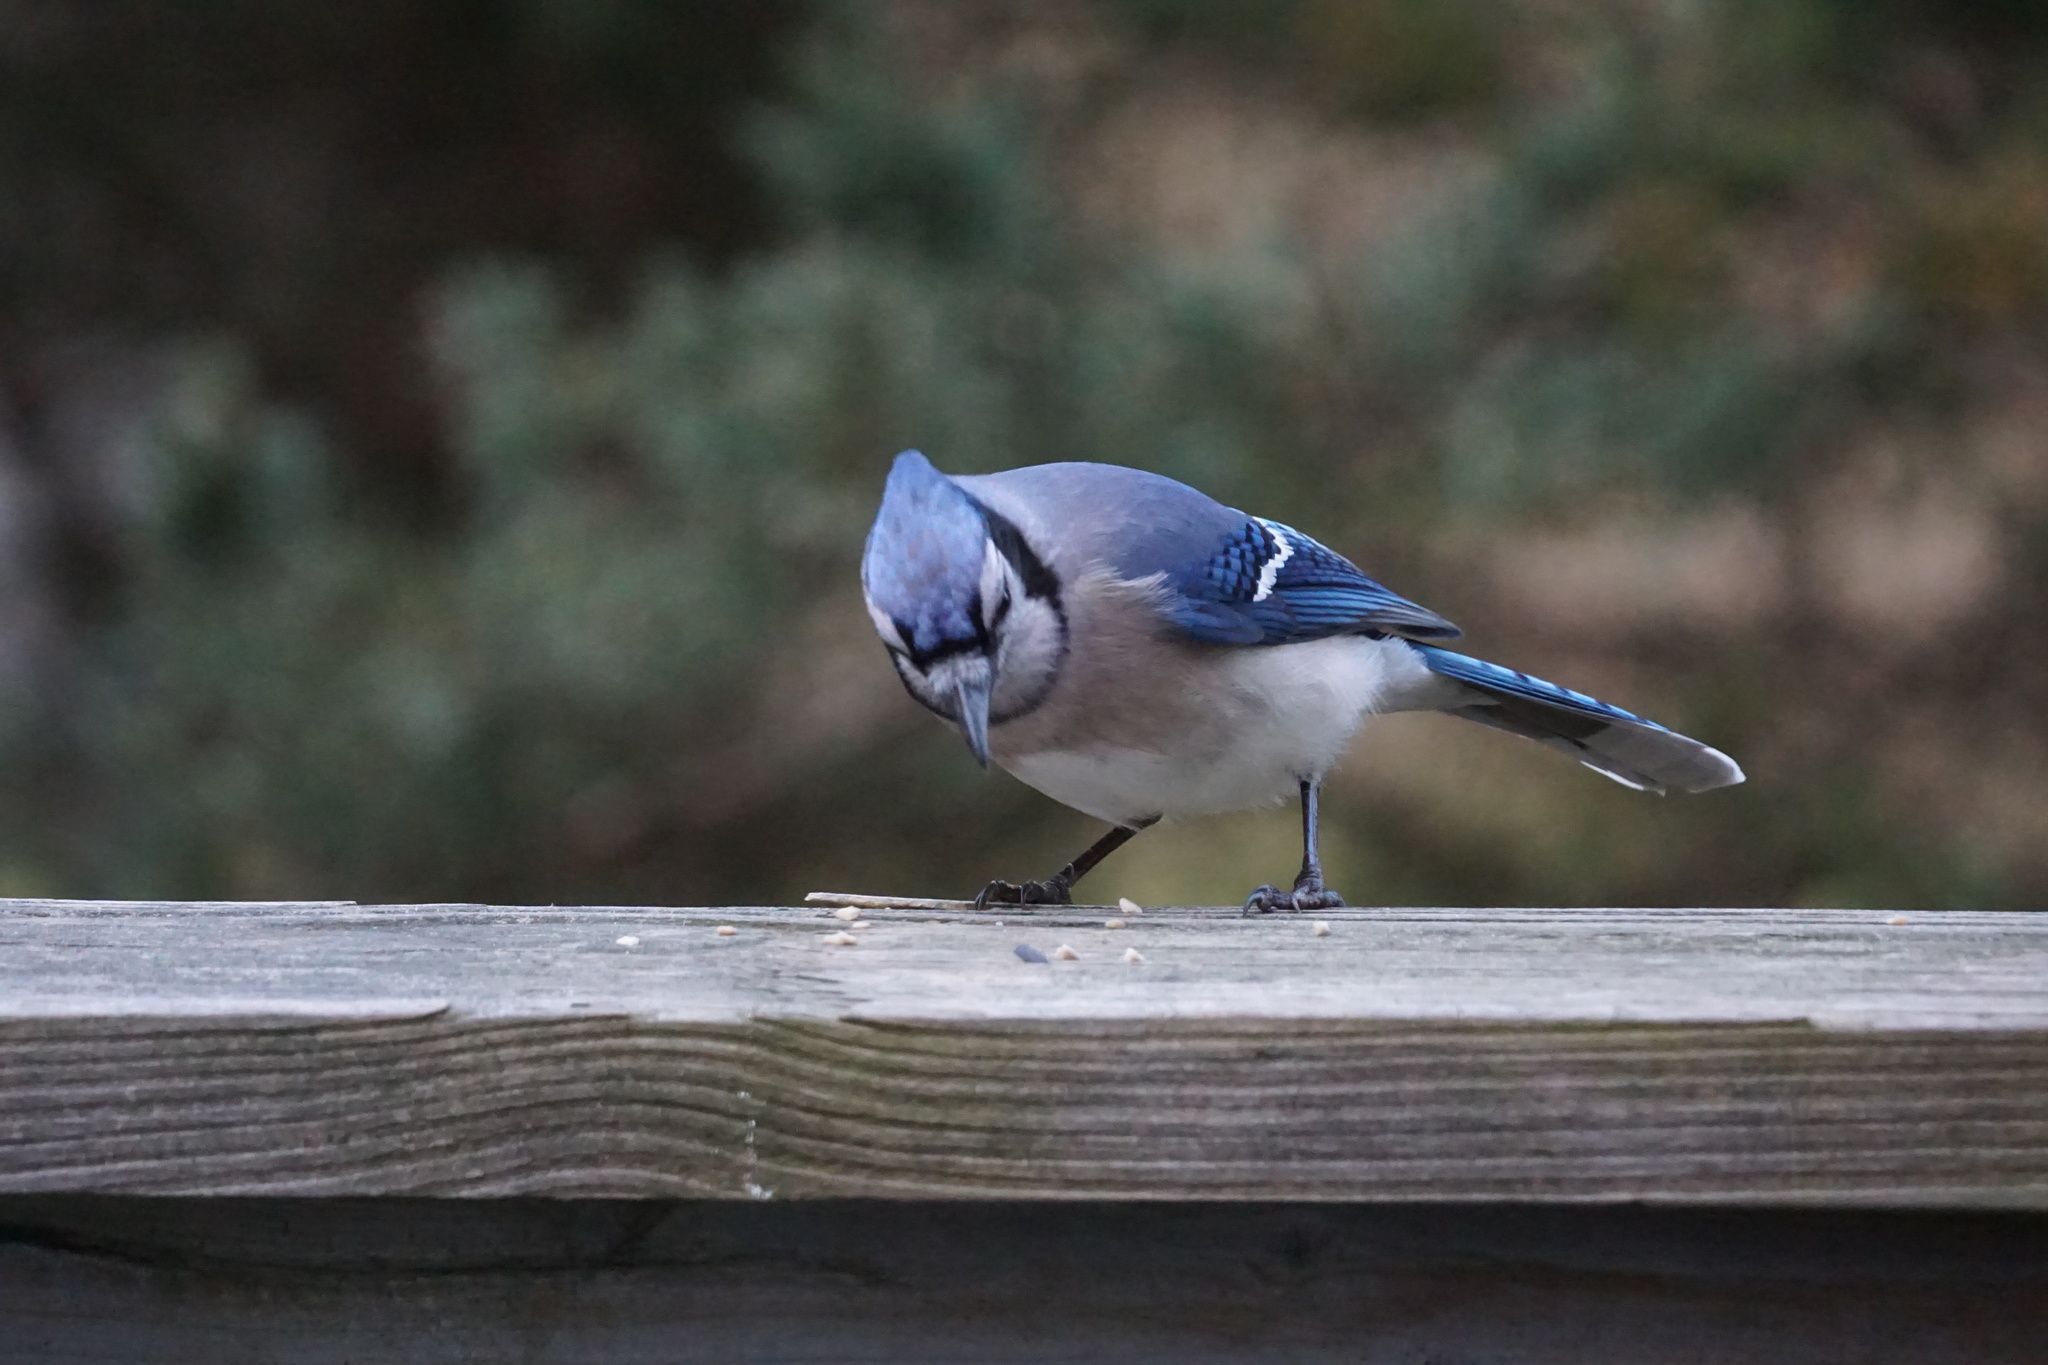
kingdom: Animalia
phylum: Chordata
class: Aves
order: Passeriformes
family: Corvidae
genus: Cyanocitta
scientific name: Cyanocitta cristata
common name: Blue jay
